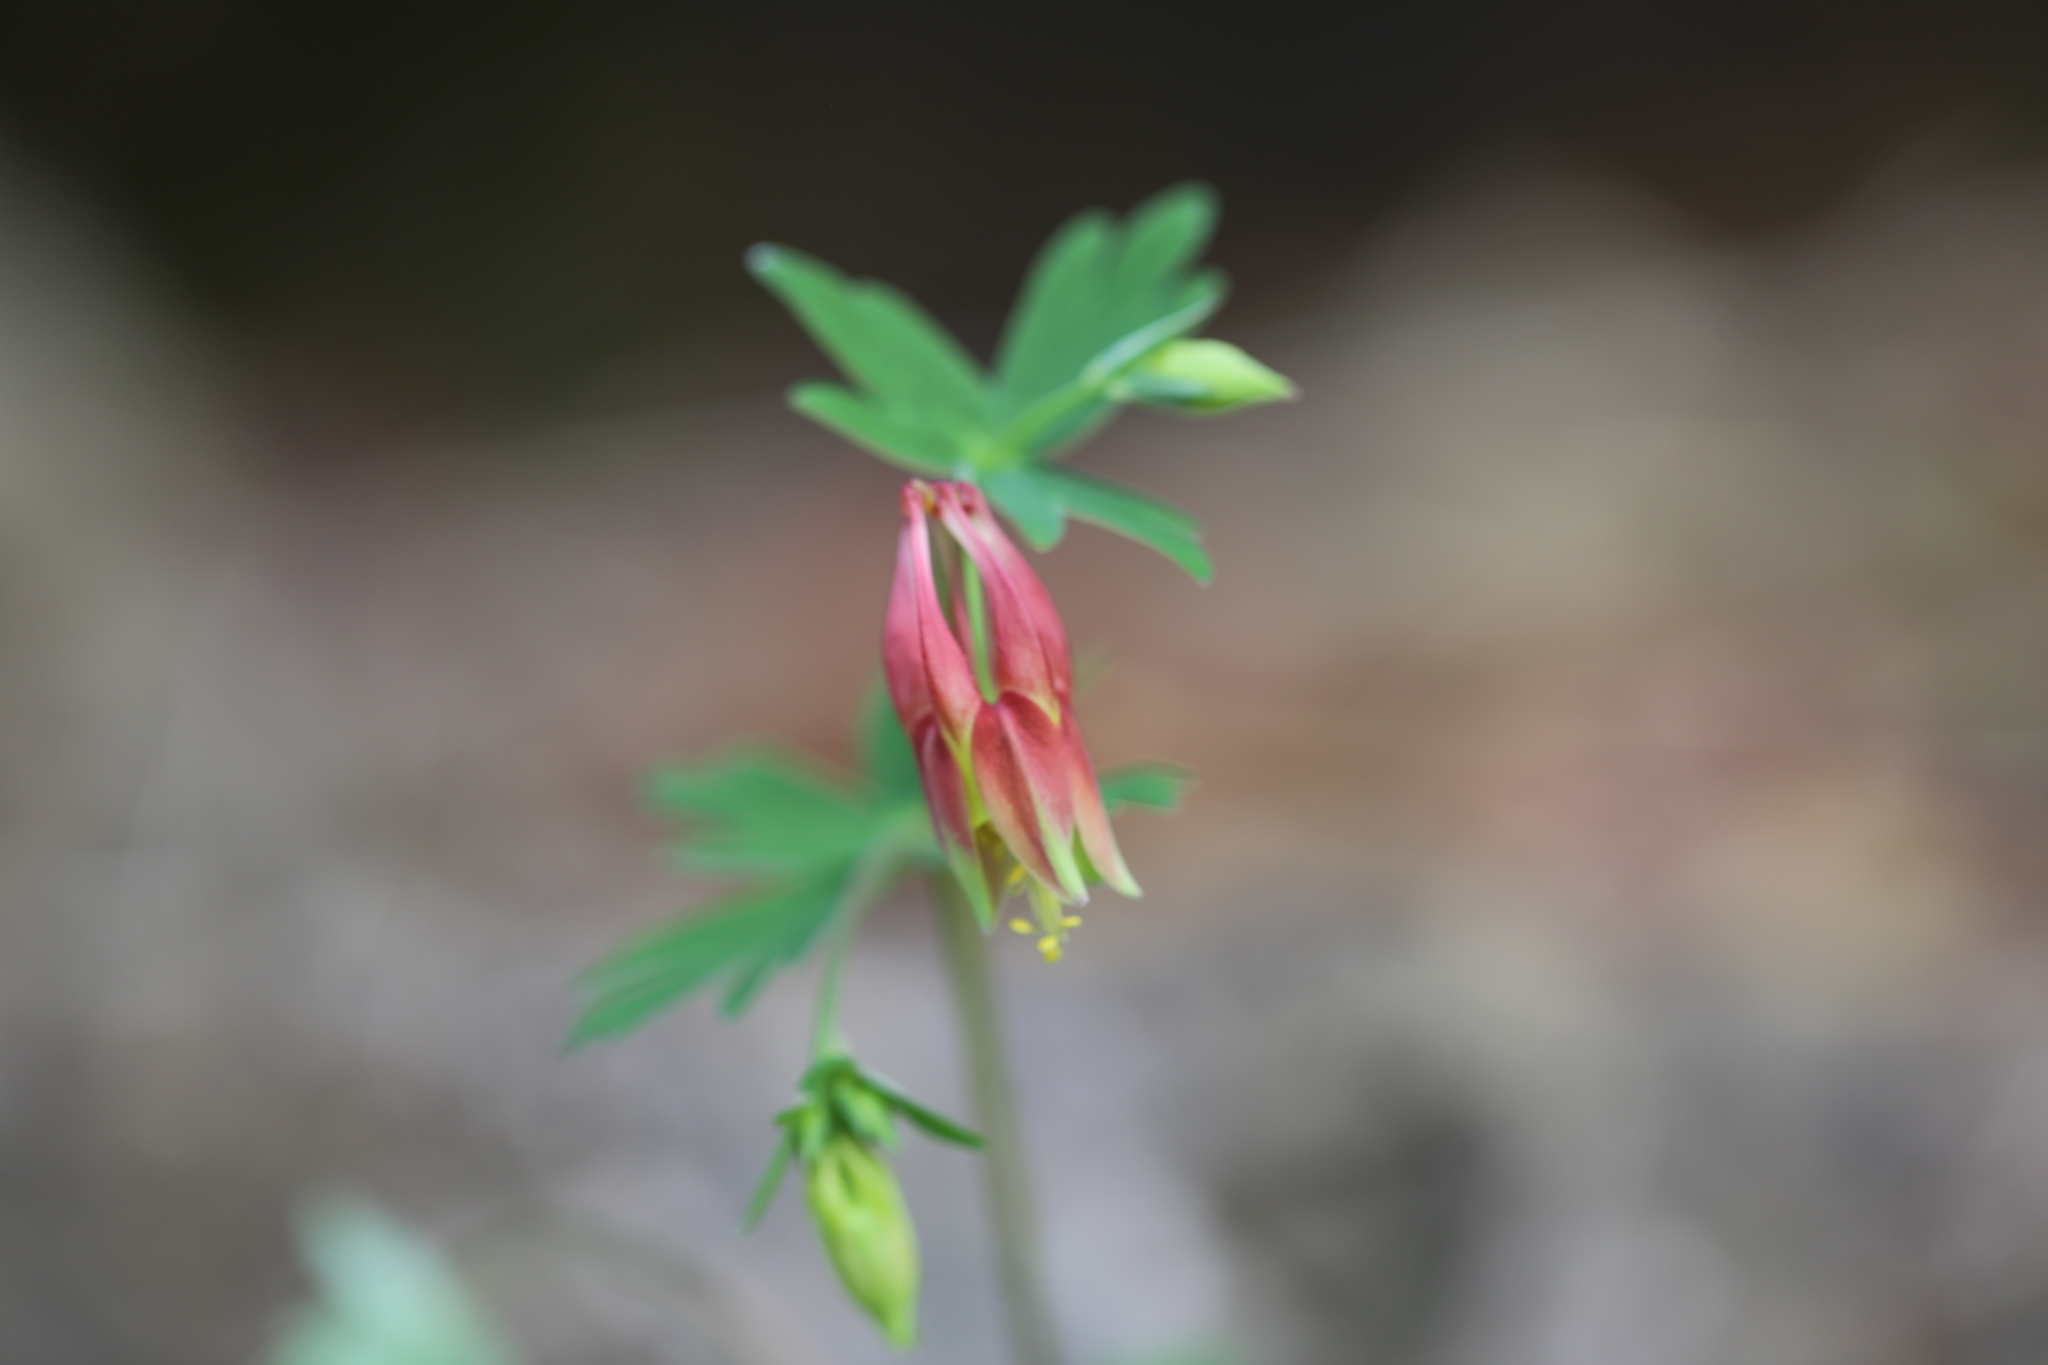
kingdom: Plantae
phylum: Tracheophyta
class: Magnoliopsida
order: Ranunculales
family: Ranunculaceae
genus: Aquilegia
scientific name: Aquilegia canadensis
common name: American columbine
